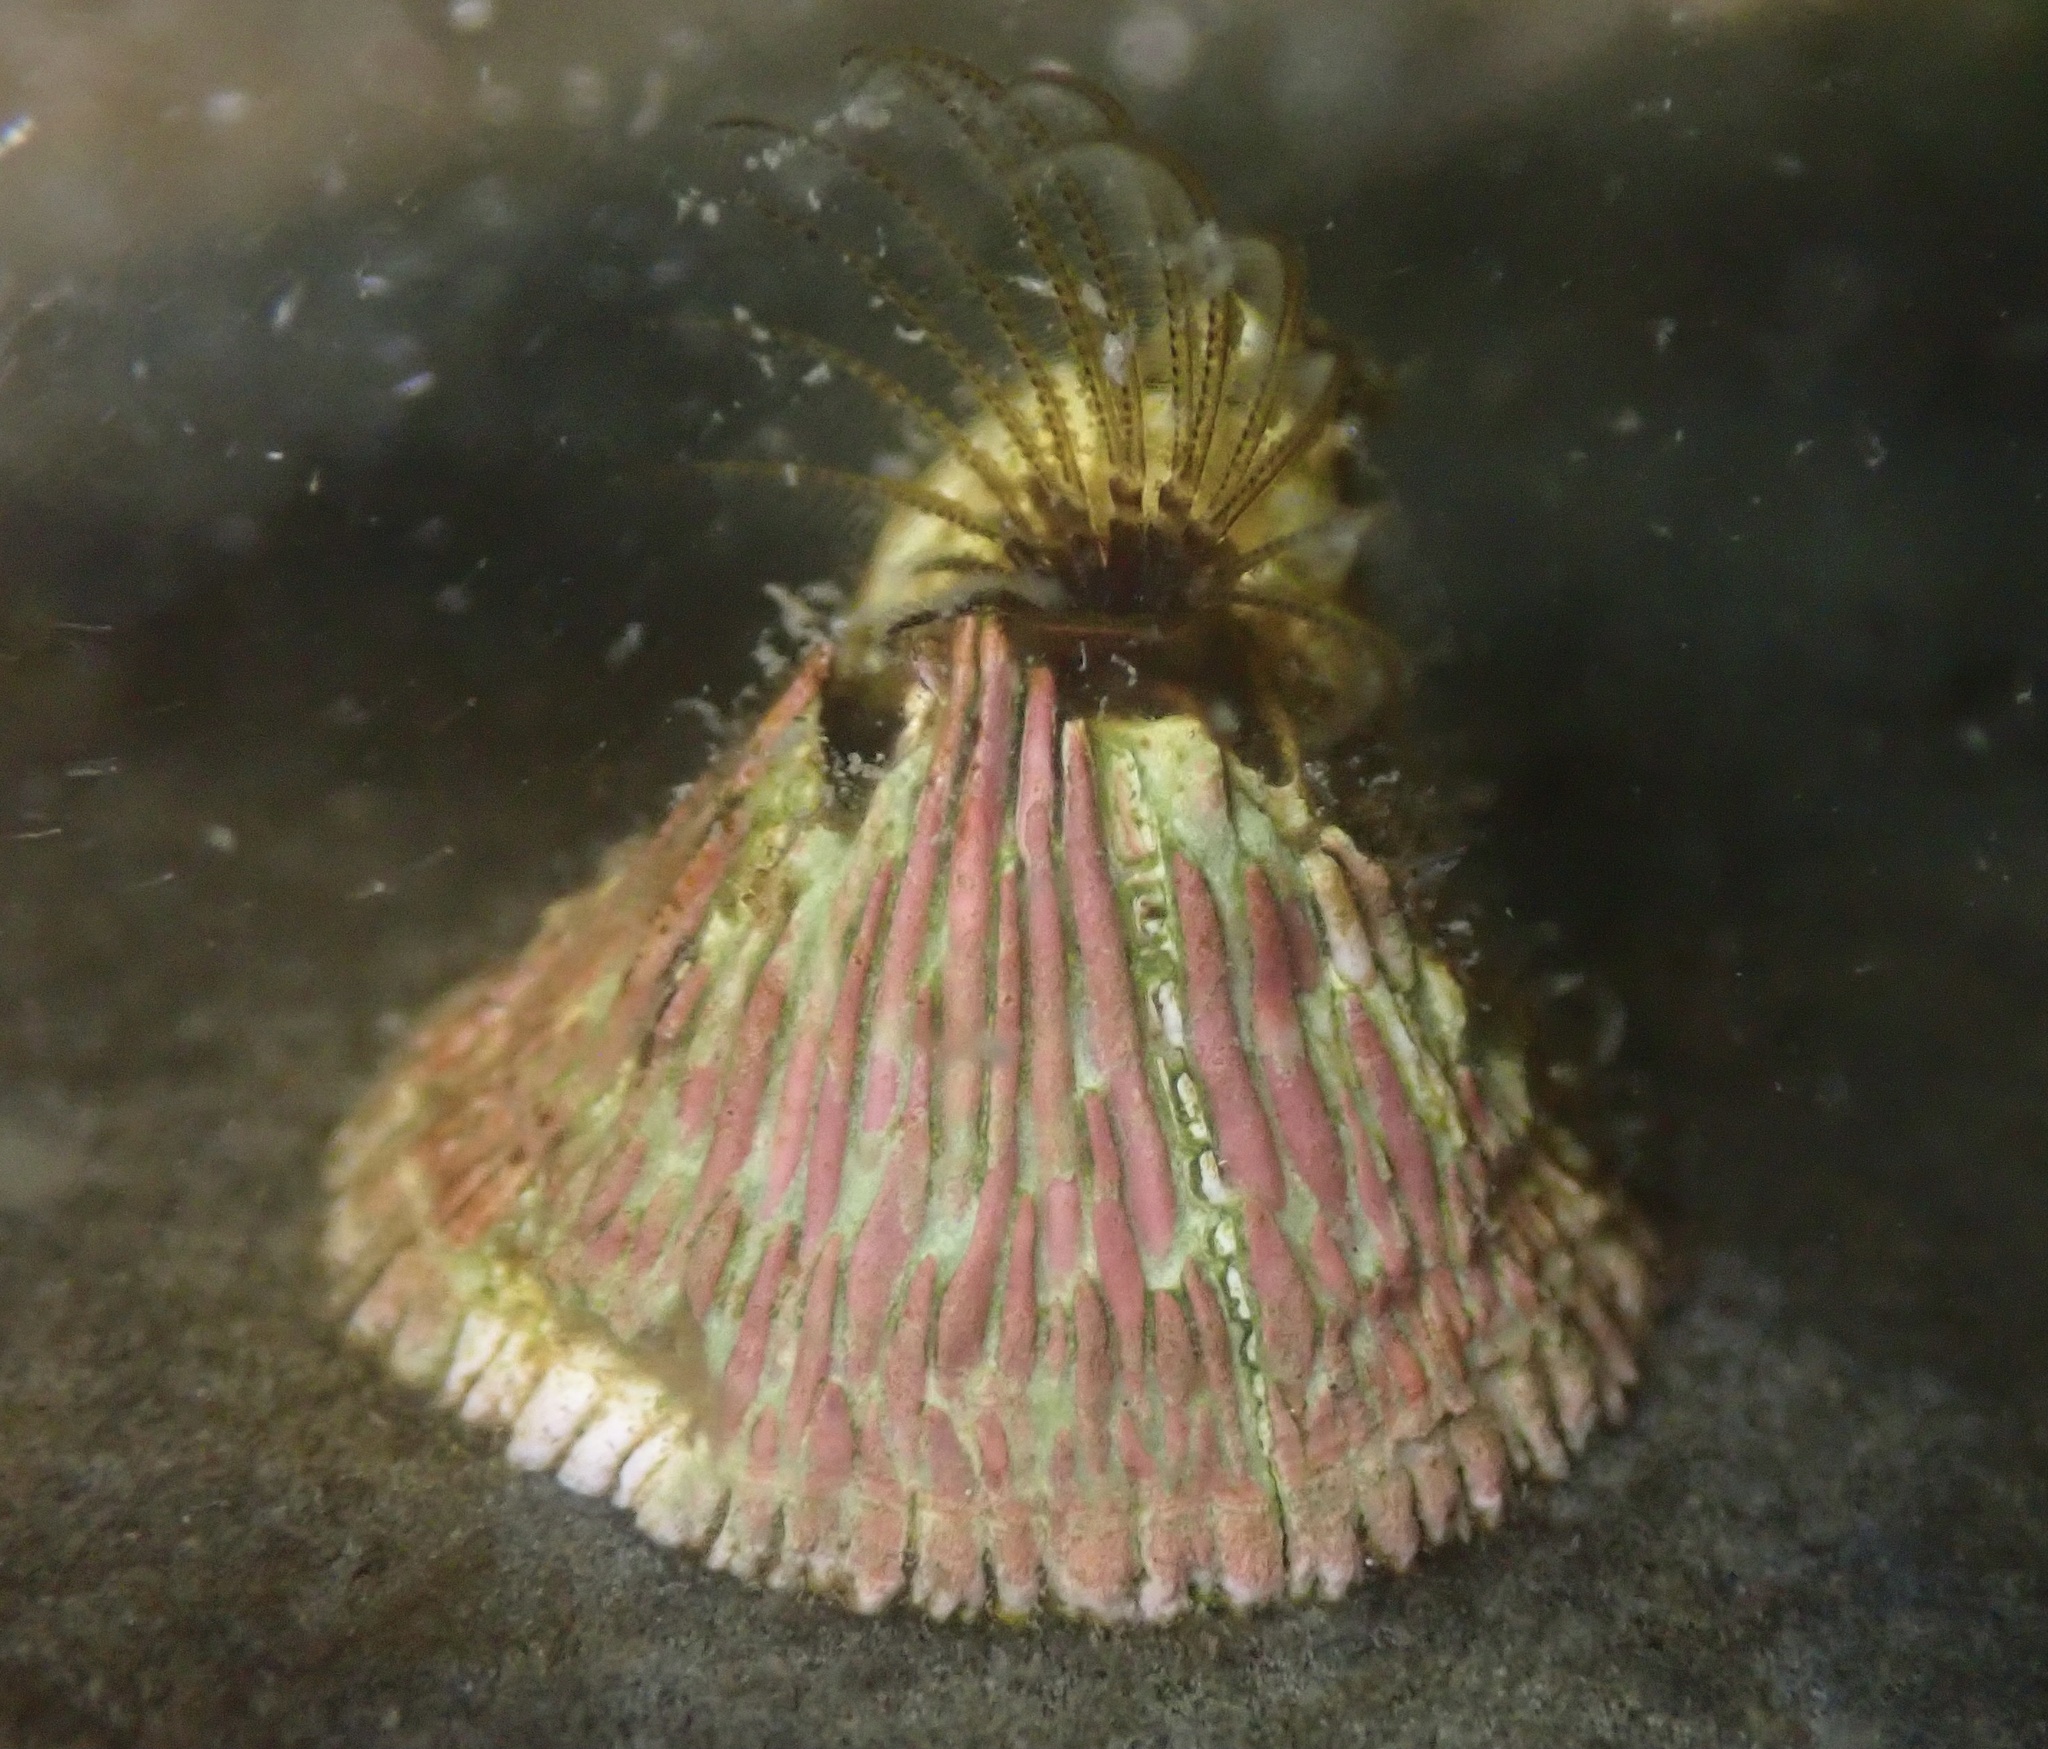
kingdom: Animalia
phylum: Arthropoda
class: Maxillopoda
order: Sessilia
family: Tetraclitidae
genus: Tetraclita
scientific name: Tetraclita rubescens
